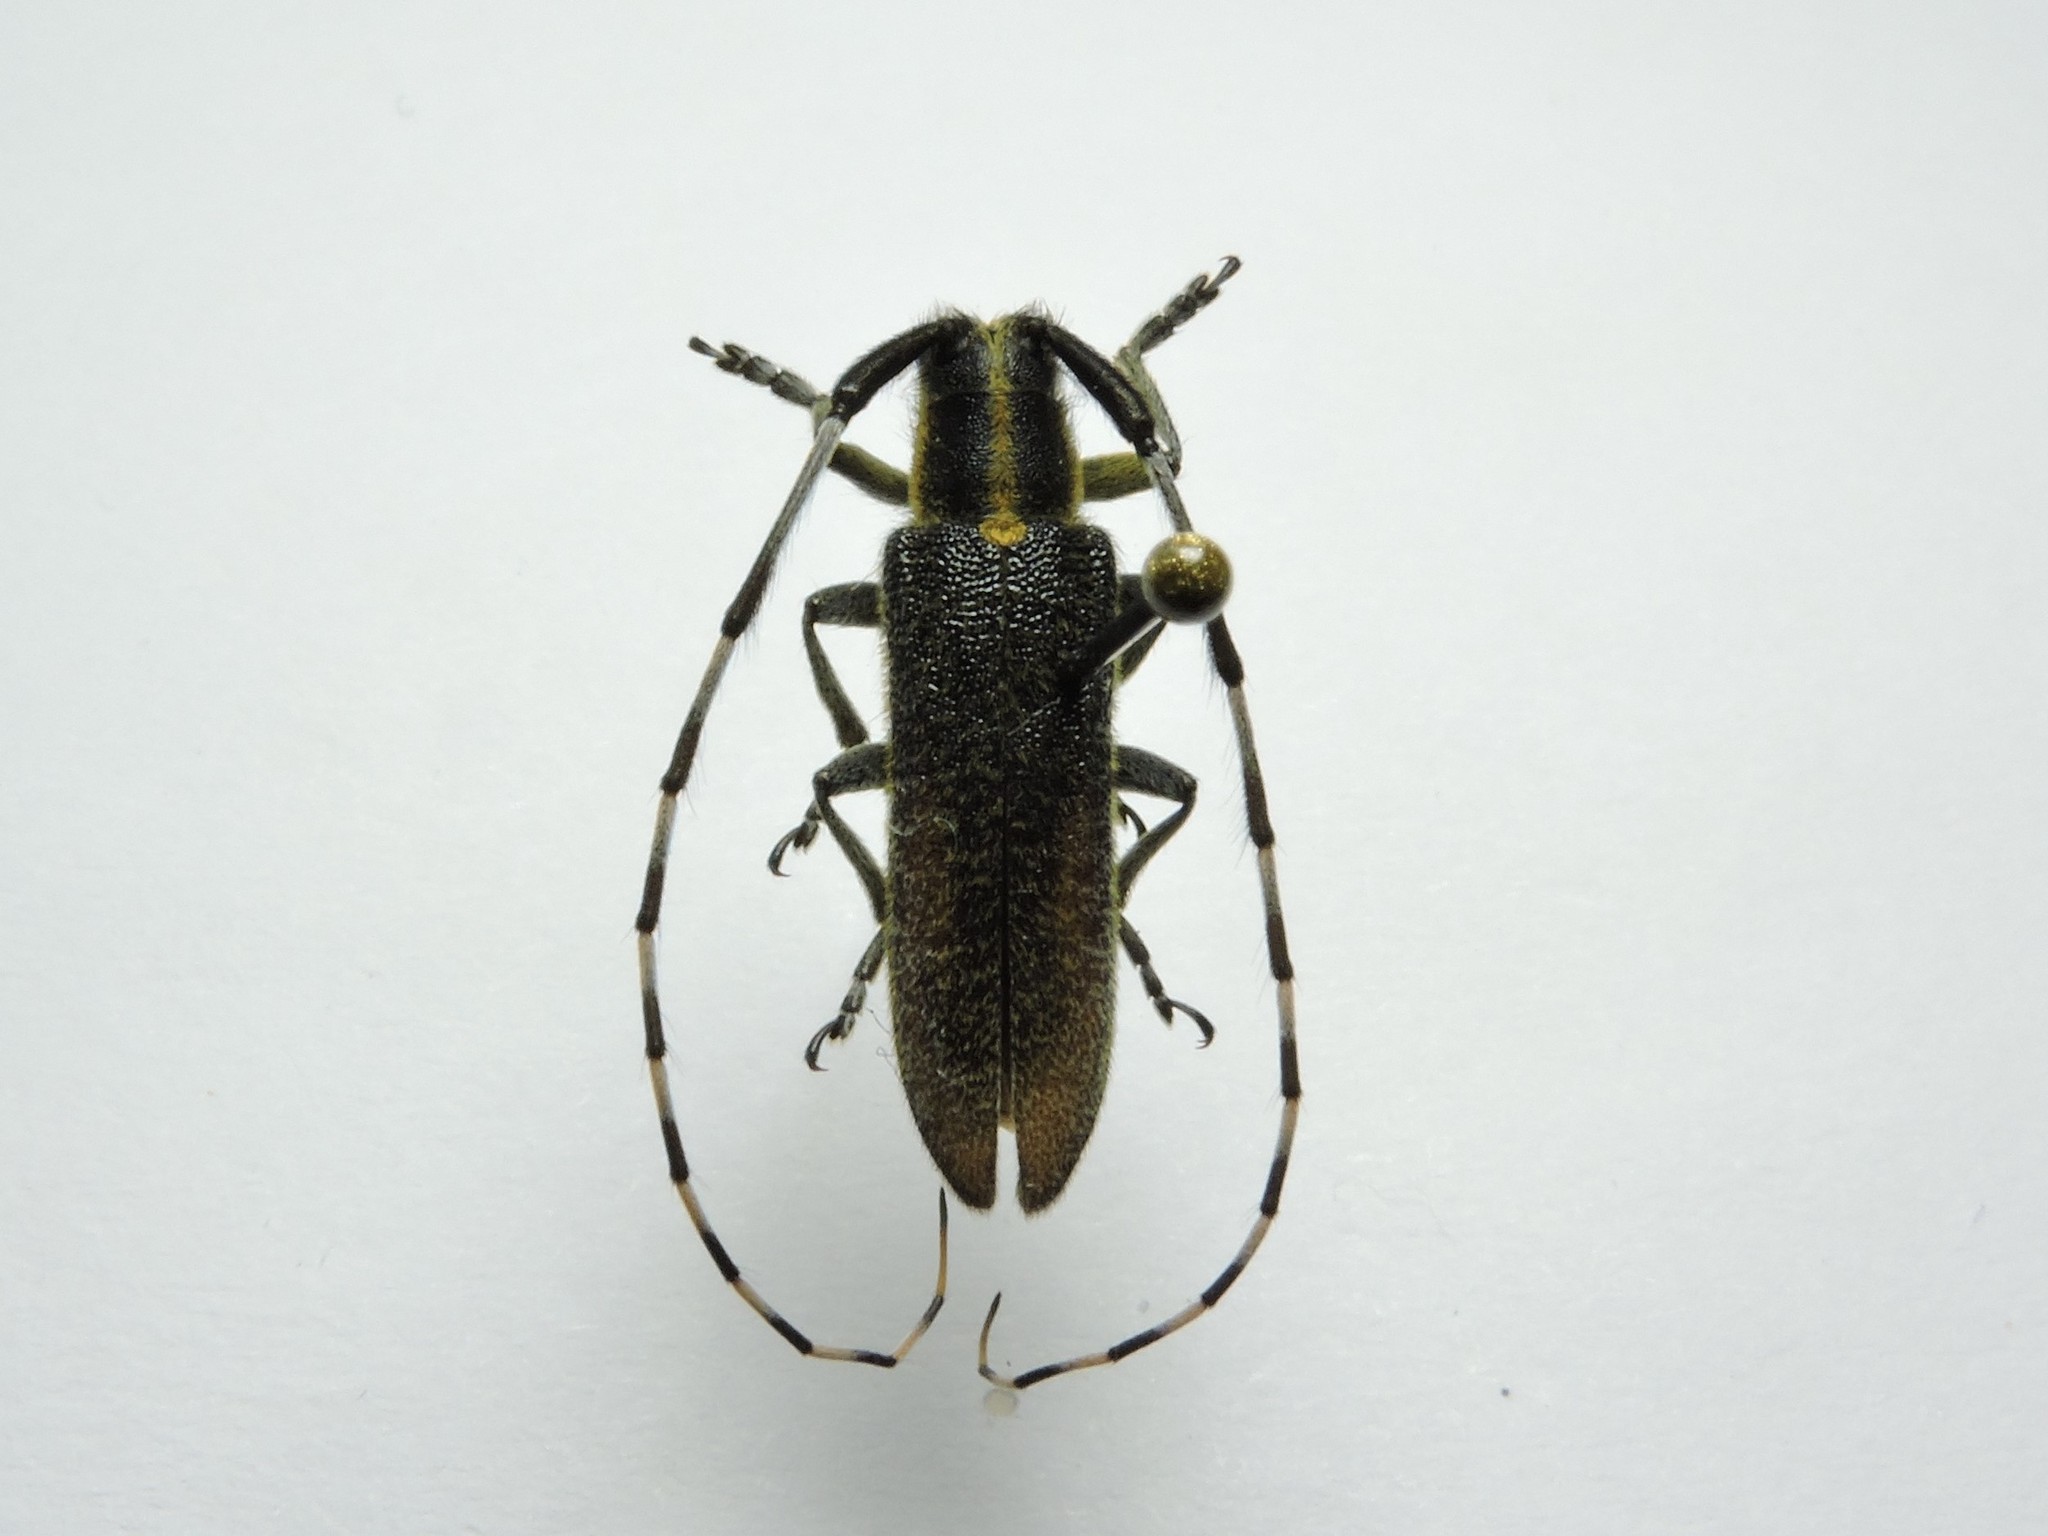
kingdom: Animalia
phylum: Arthropoda
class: Insecta
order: Coleoptera
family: Cerambycidae
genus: Agapanthia
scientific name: Agapanthia lederi
